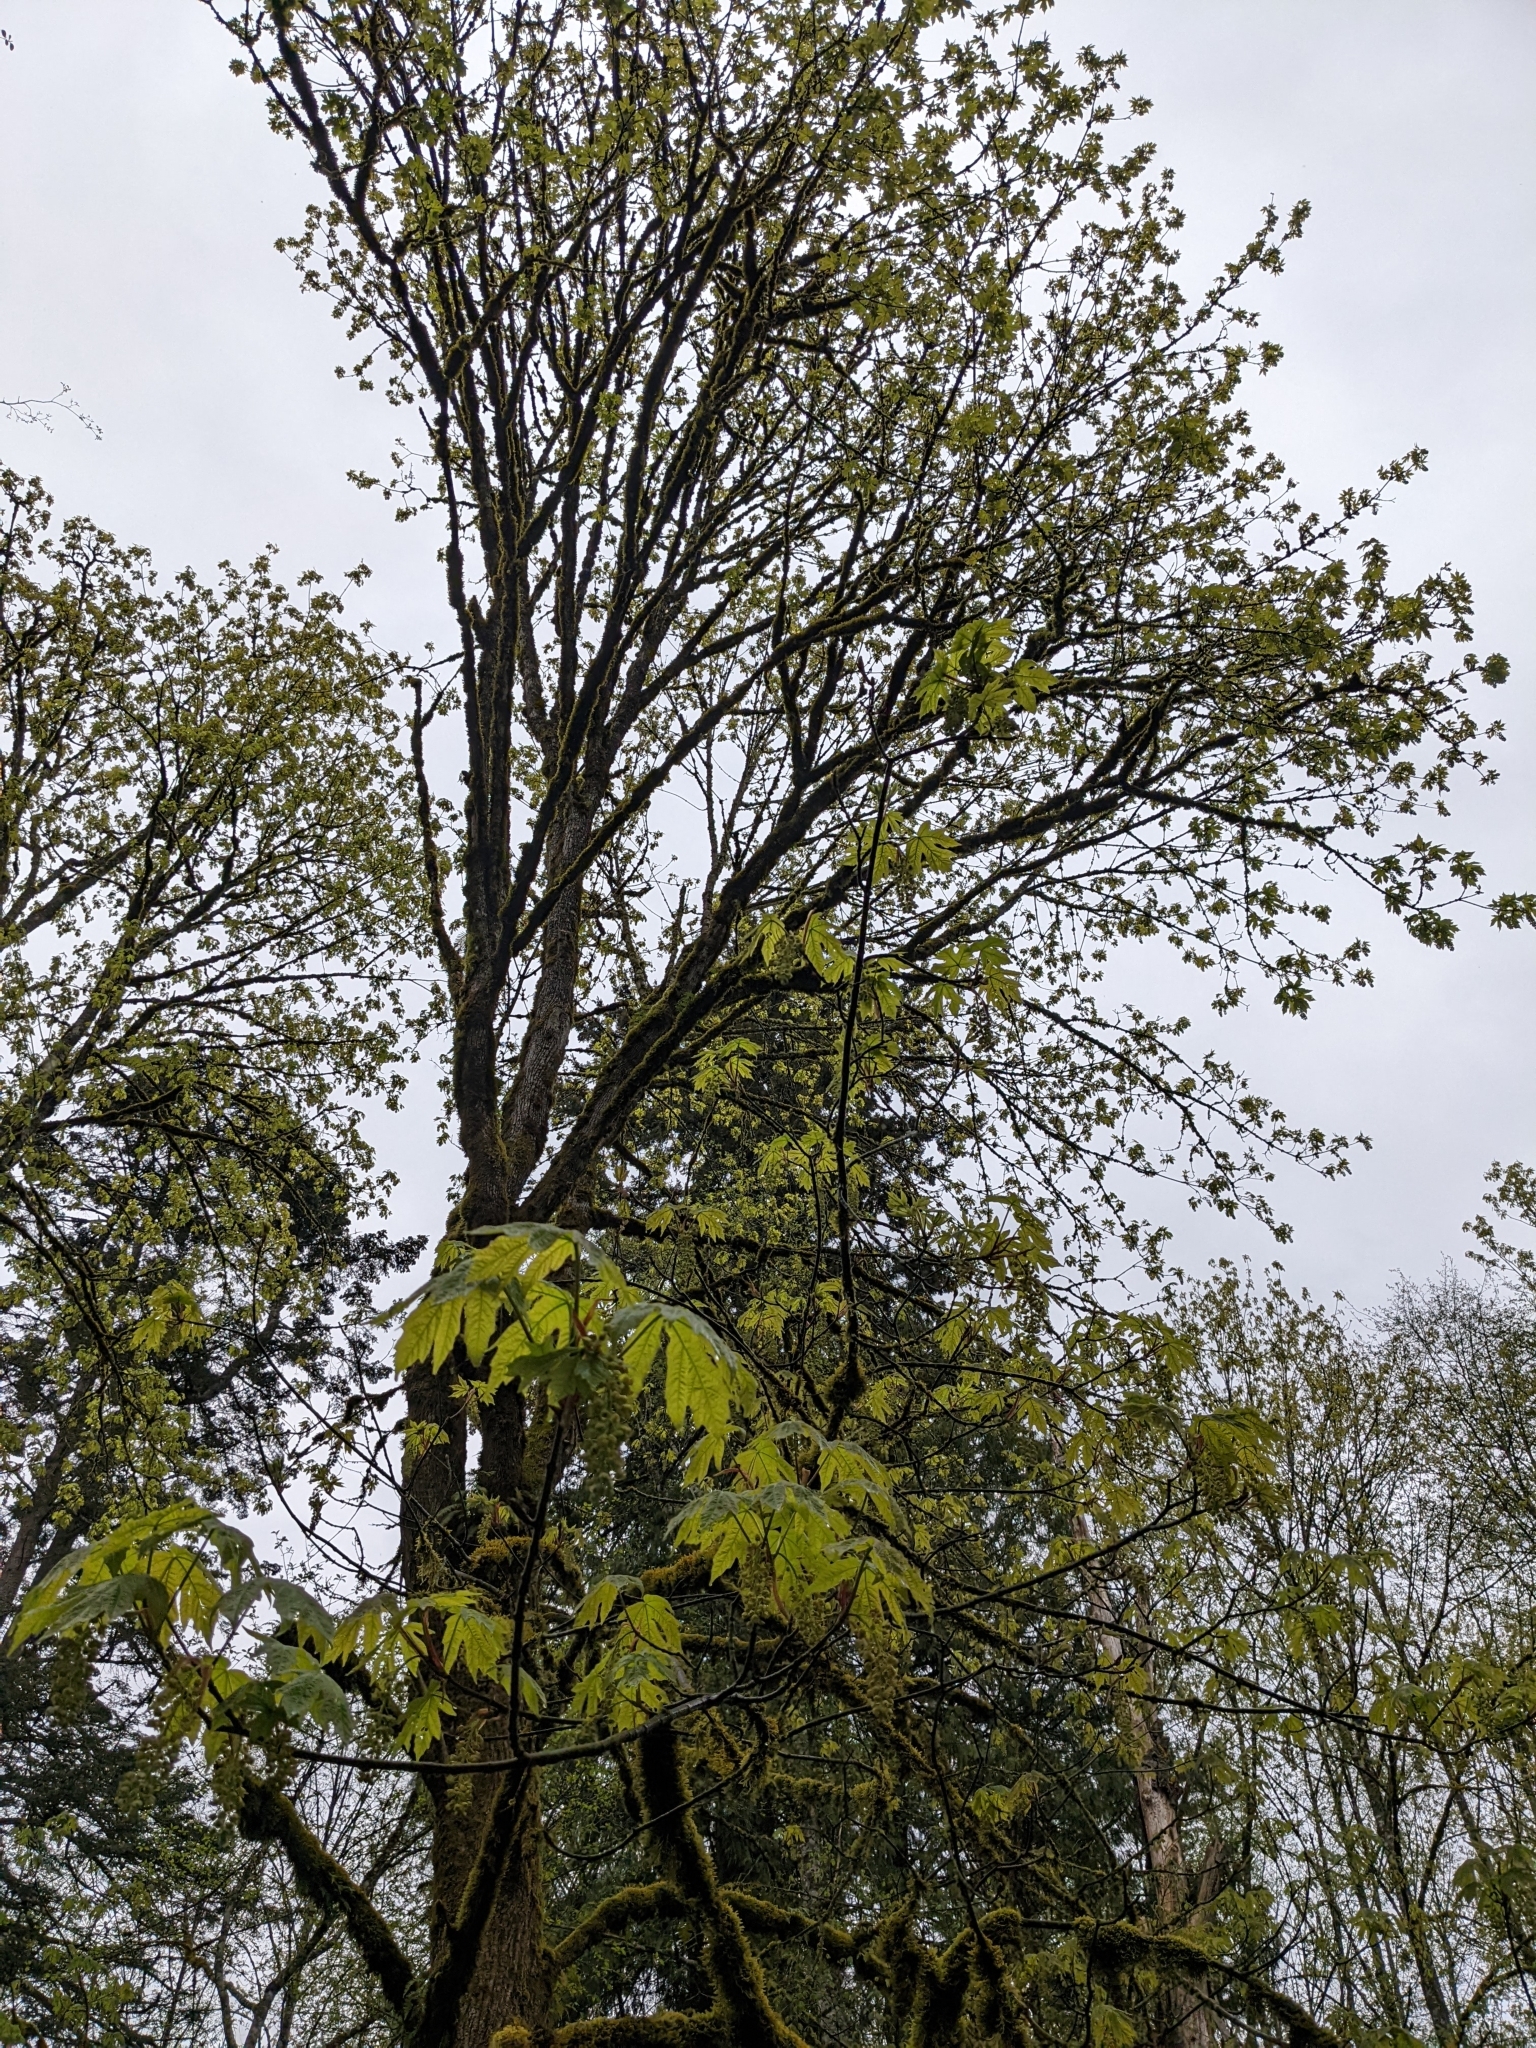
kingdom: Plantae
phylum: Tracheophyta
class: Magnoliopsida
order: Sapindales
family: Sapindaceae
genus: Acer
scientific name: Acer macrophyllum
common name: Oregon maple
